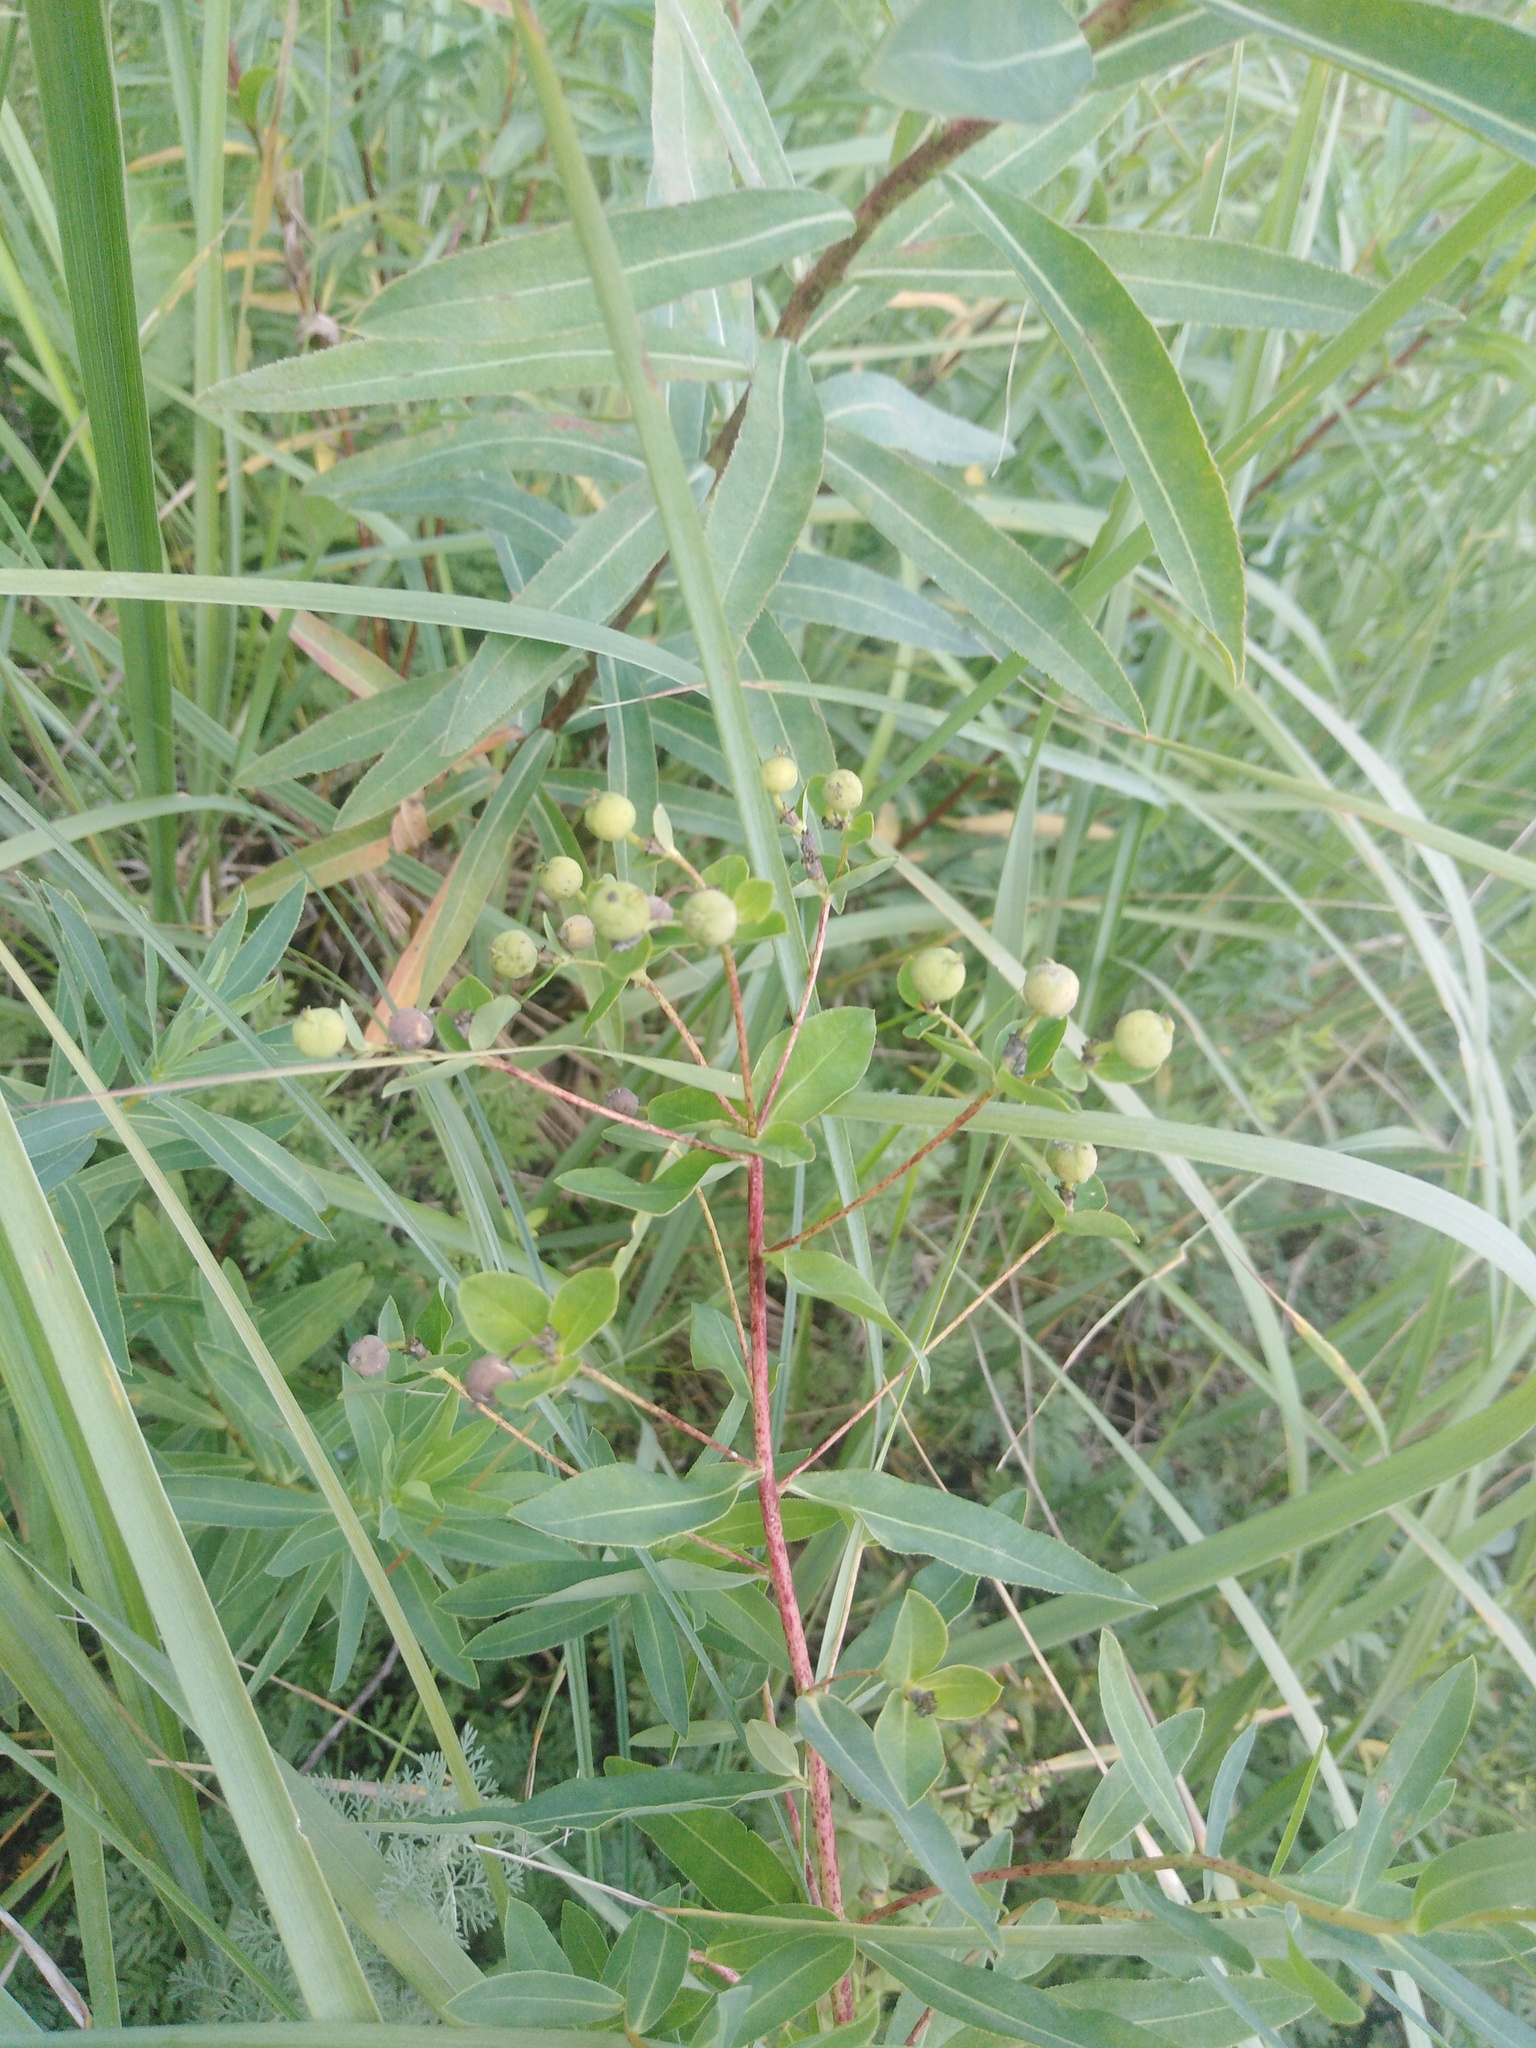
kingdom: Plantae
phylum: Tracheophyta
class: Magnoliopsida
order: Malpighiales
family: Euphorbiaceae
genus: Euphorbia
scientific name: Euphorbia semivillosa
